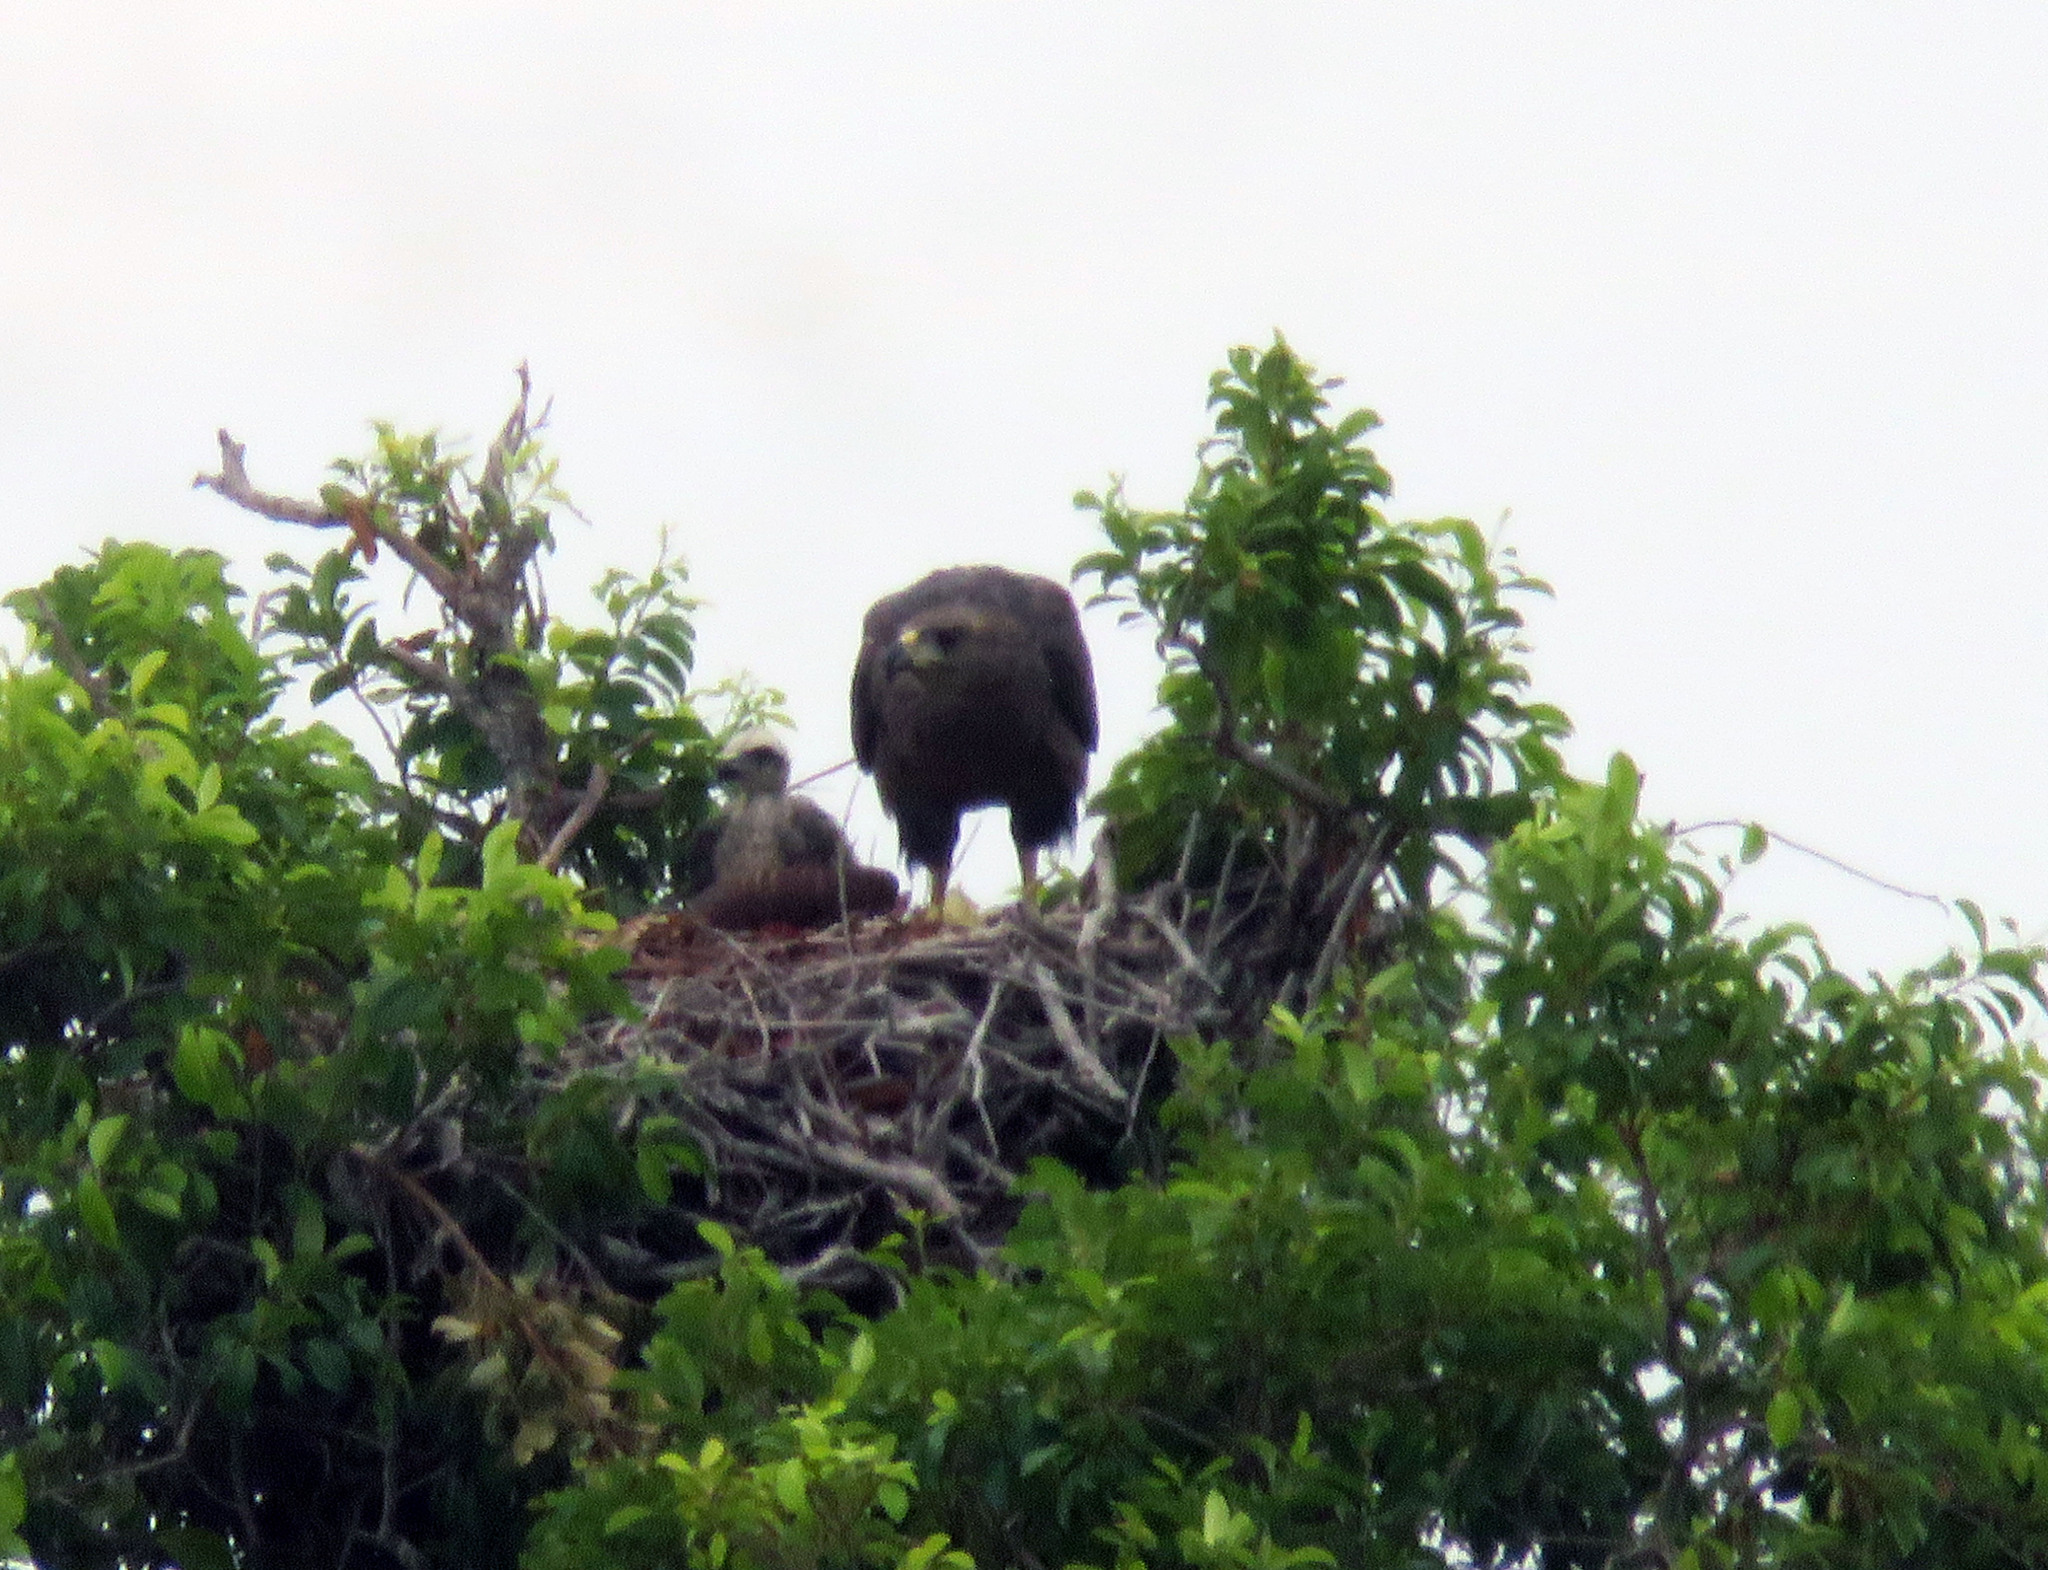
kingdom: Animalia
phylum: Chordata
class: Aves
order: Accipitriformes
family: Accipitridae
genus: Harpyhaliaetus
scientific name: Harpyhaliaetus coronatus
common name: Crowned solitary eagle
